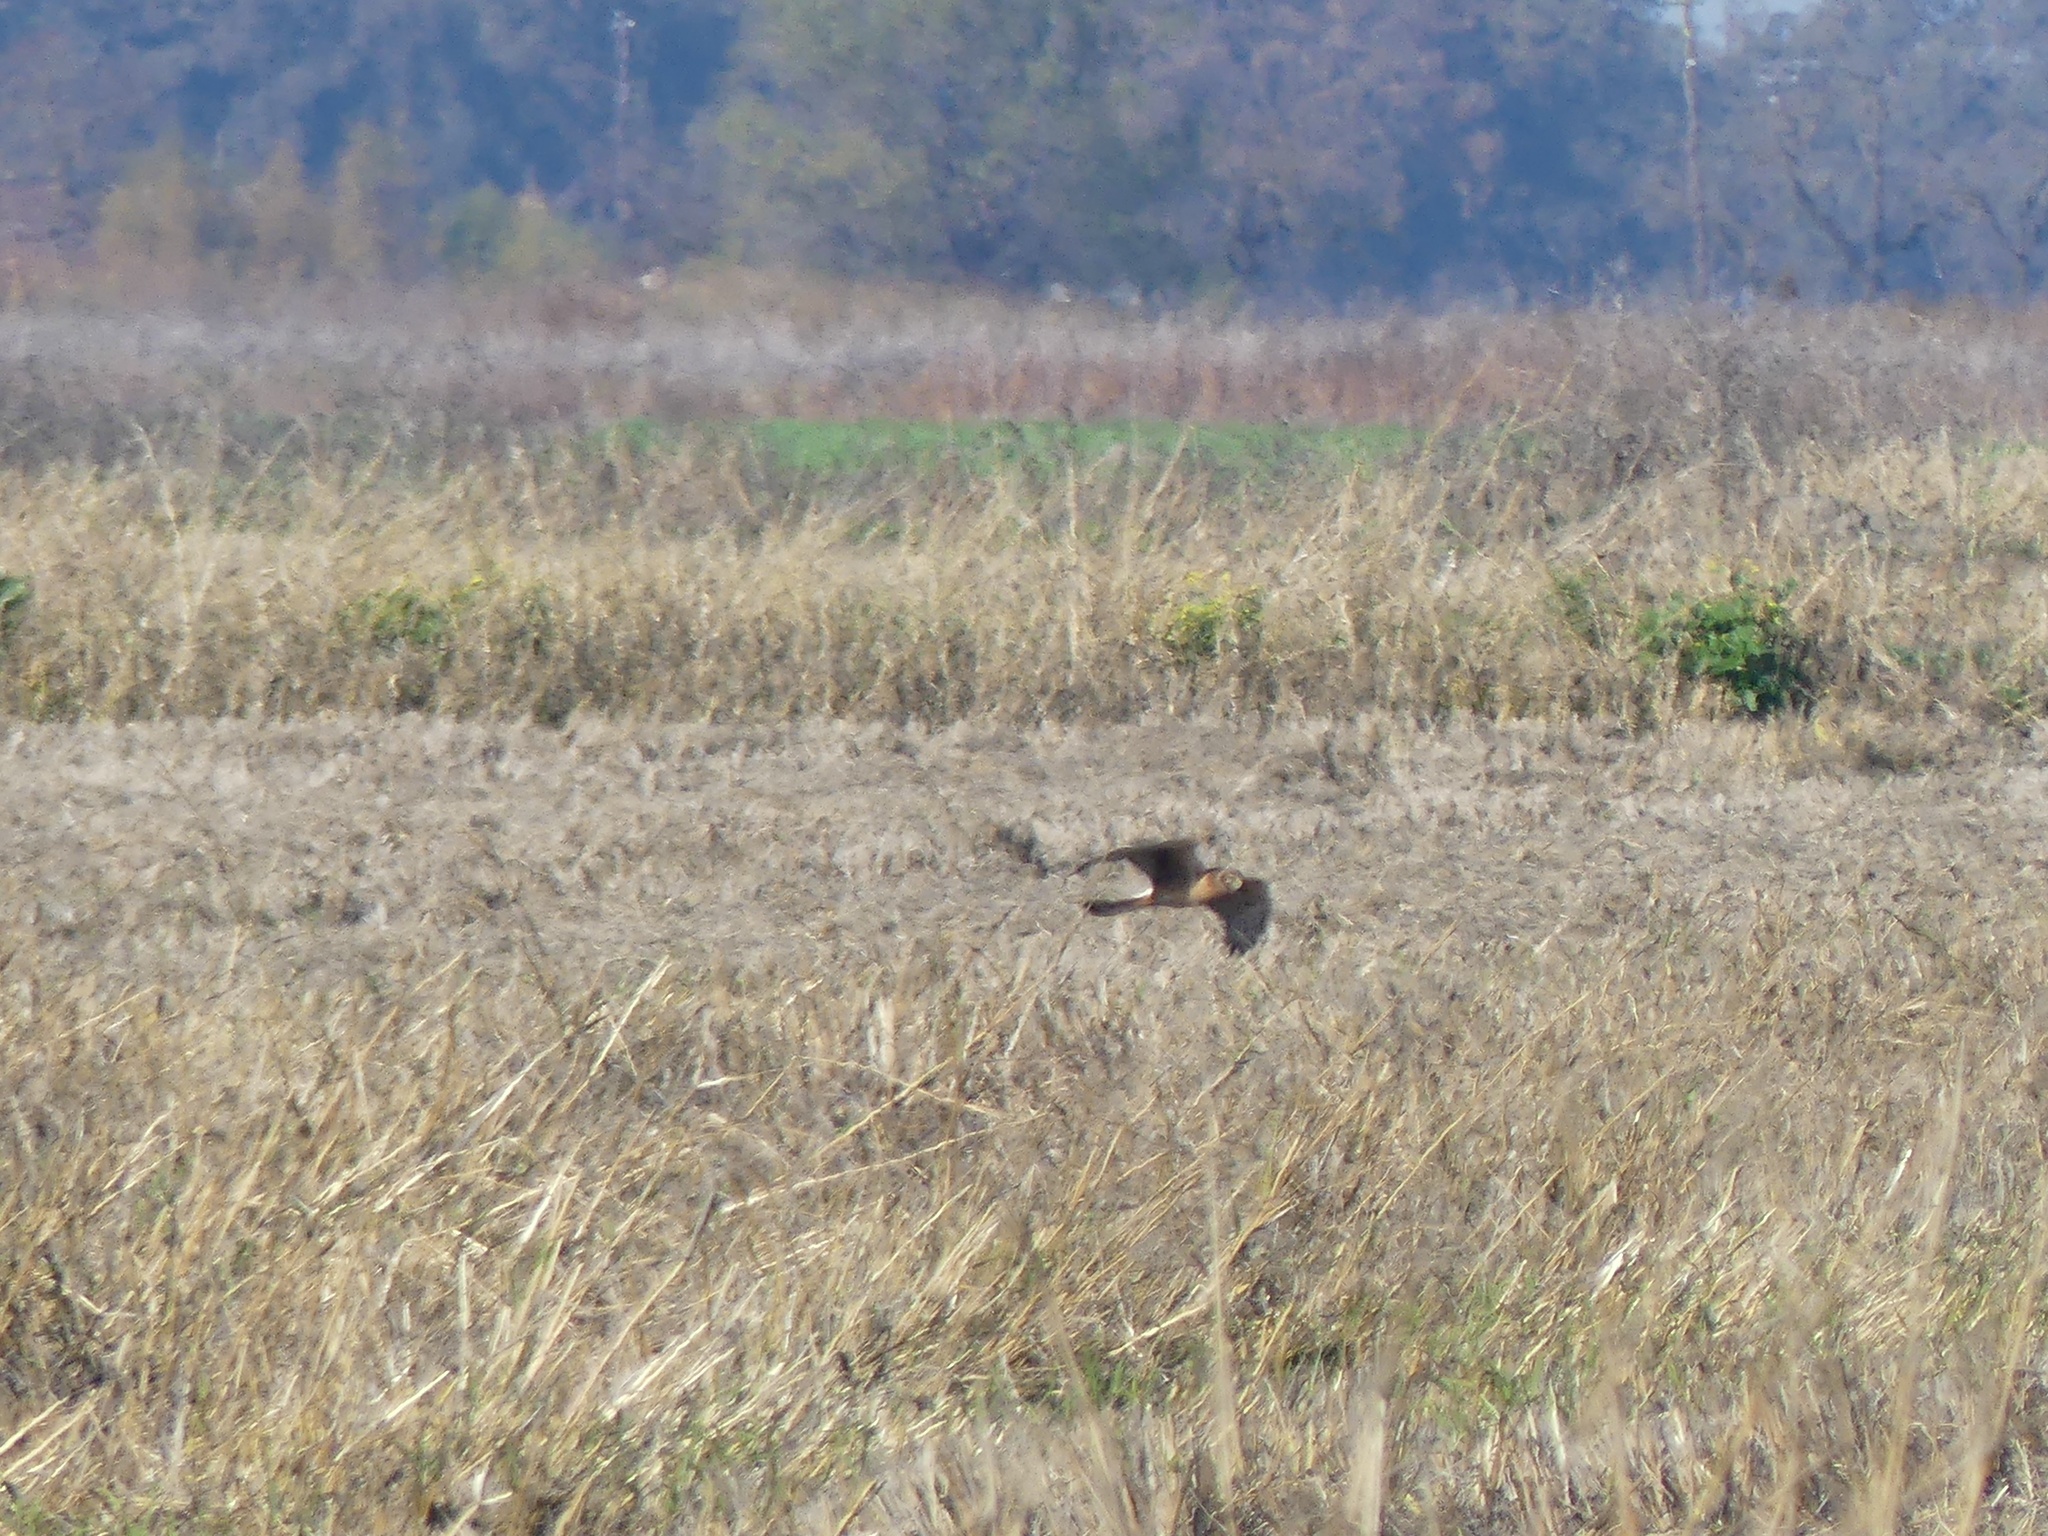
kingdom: Animalia
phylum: Chordata
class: Aves
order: Accipitriformes
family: Accipitridae
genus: Circus
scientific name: Circus cyaneus
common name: Hen harrier
